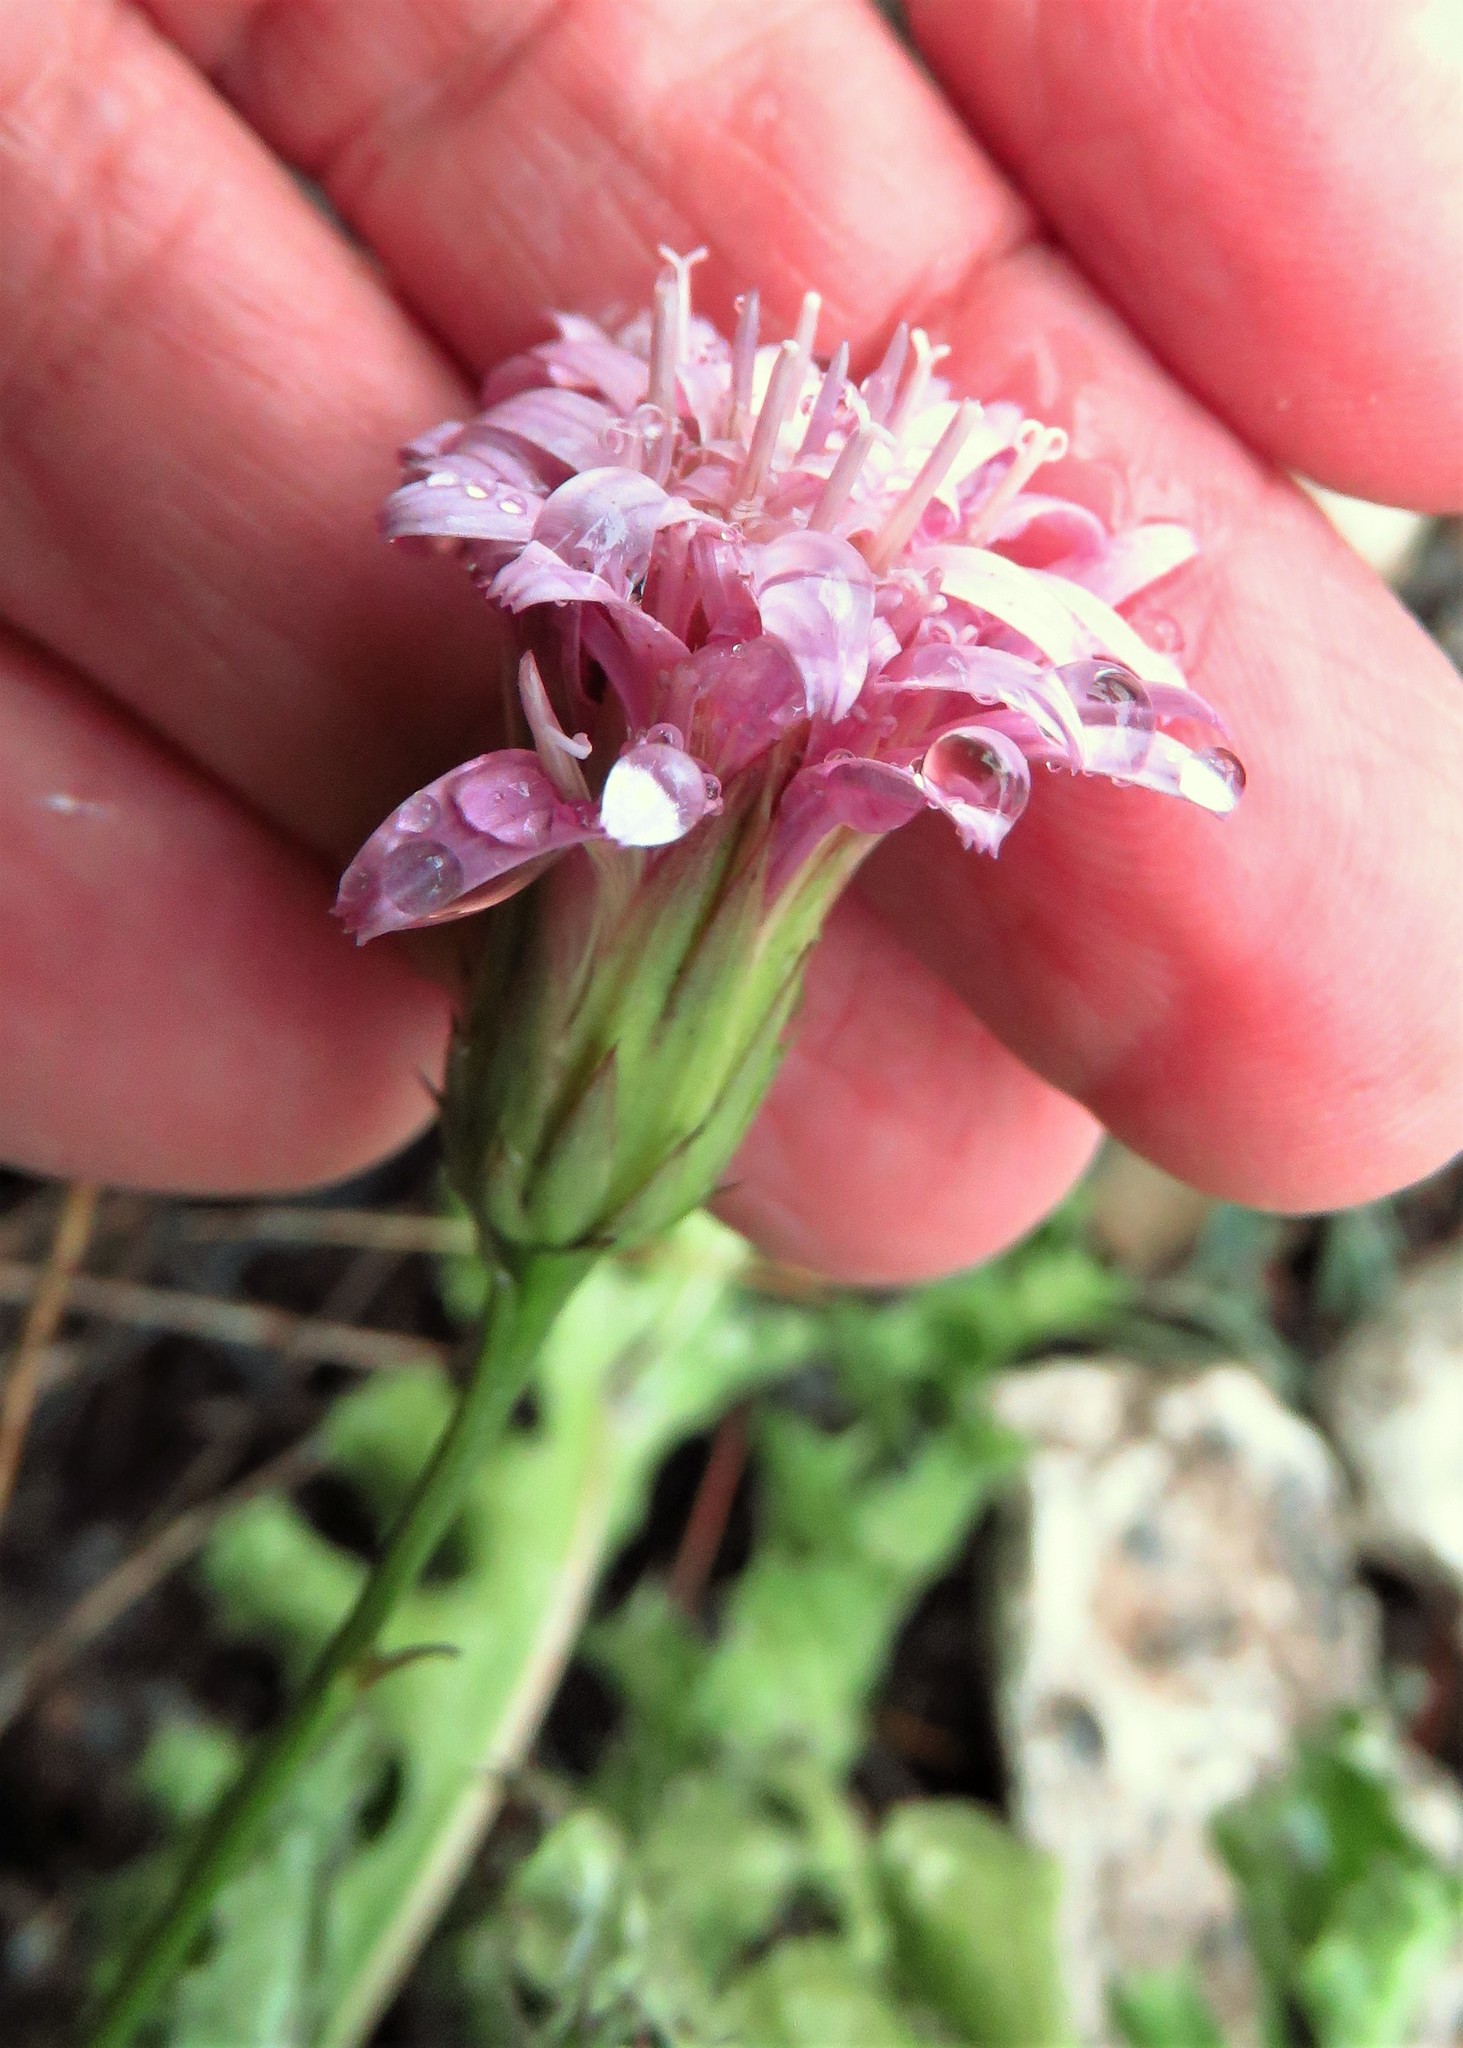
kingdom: Plantae
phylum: Tracheophyta
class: Magnoliopsida
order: Asterales
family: Asteraceae
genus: Acourtia
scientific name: Acourtia runcinata
